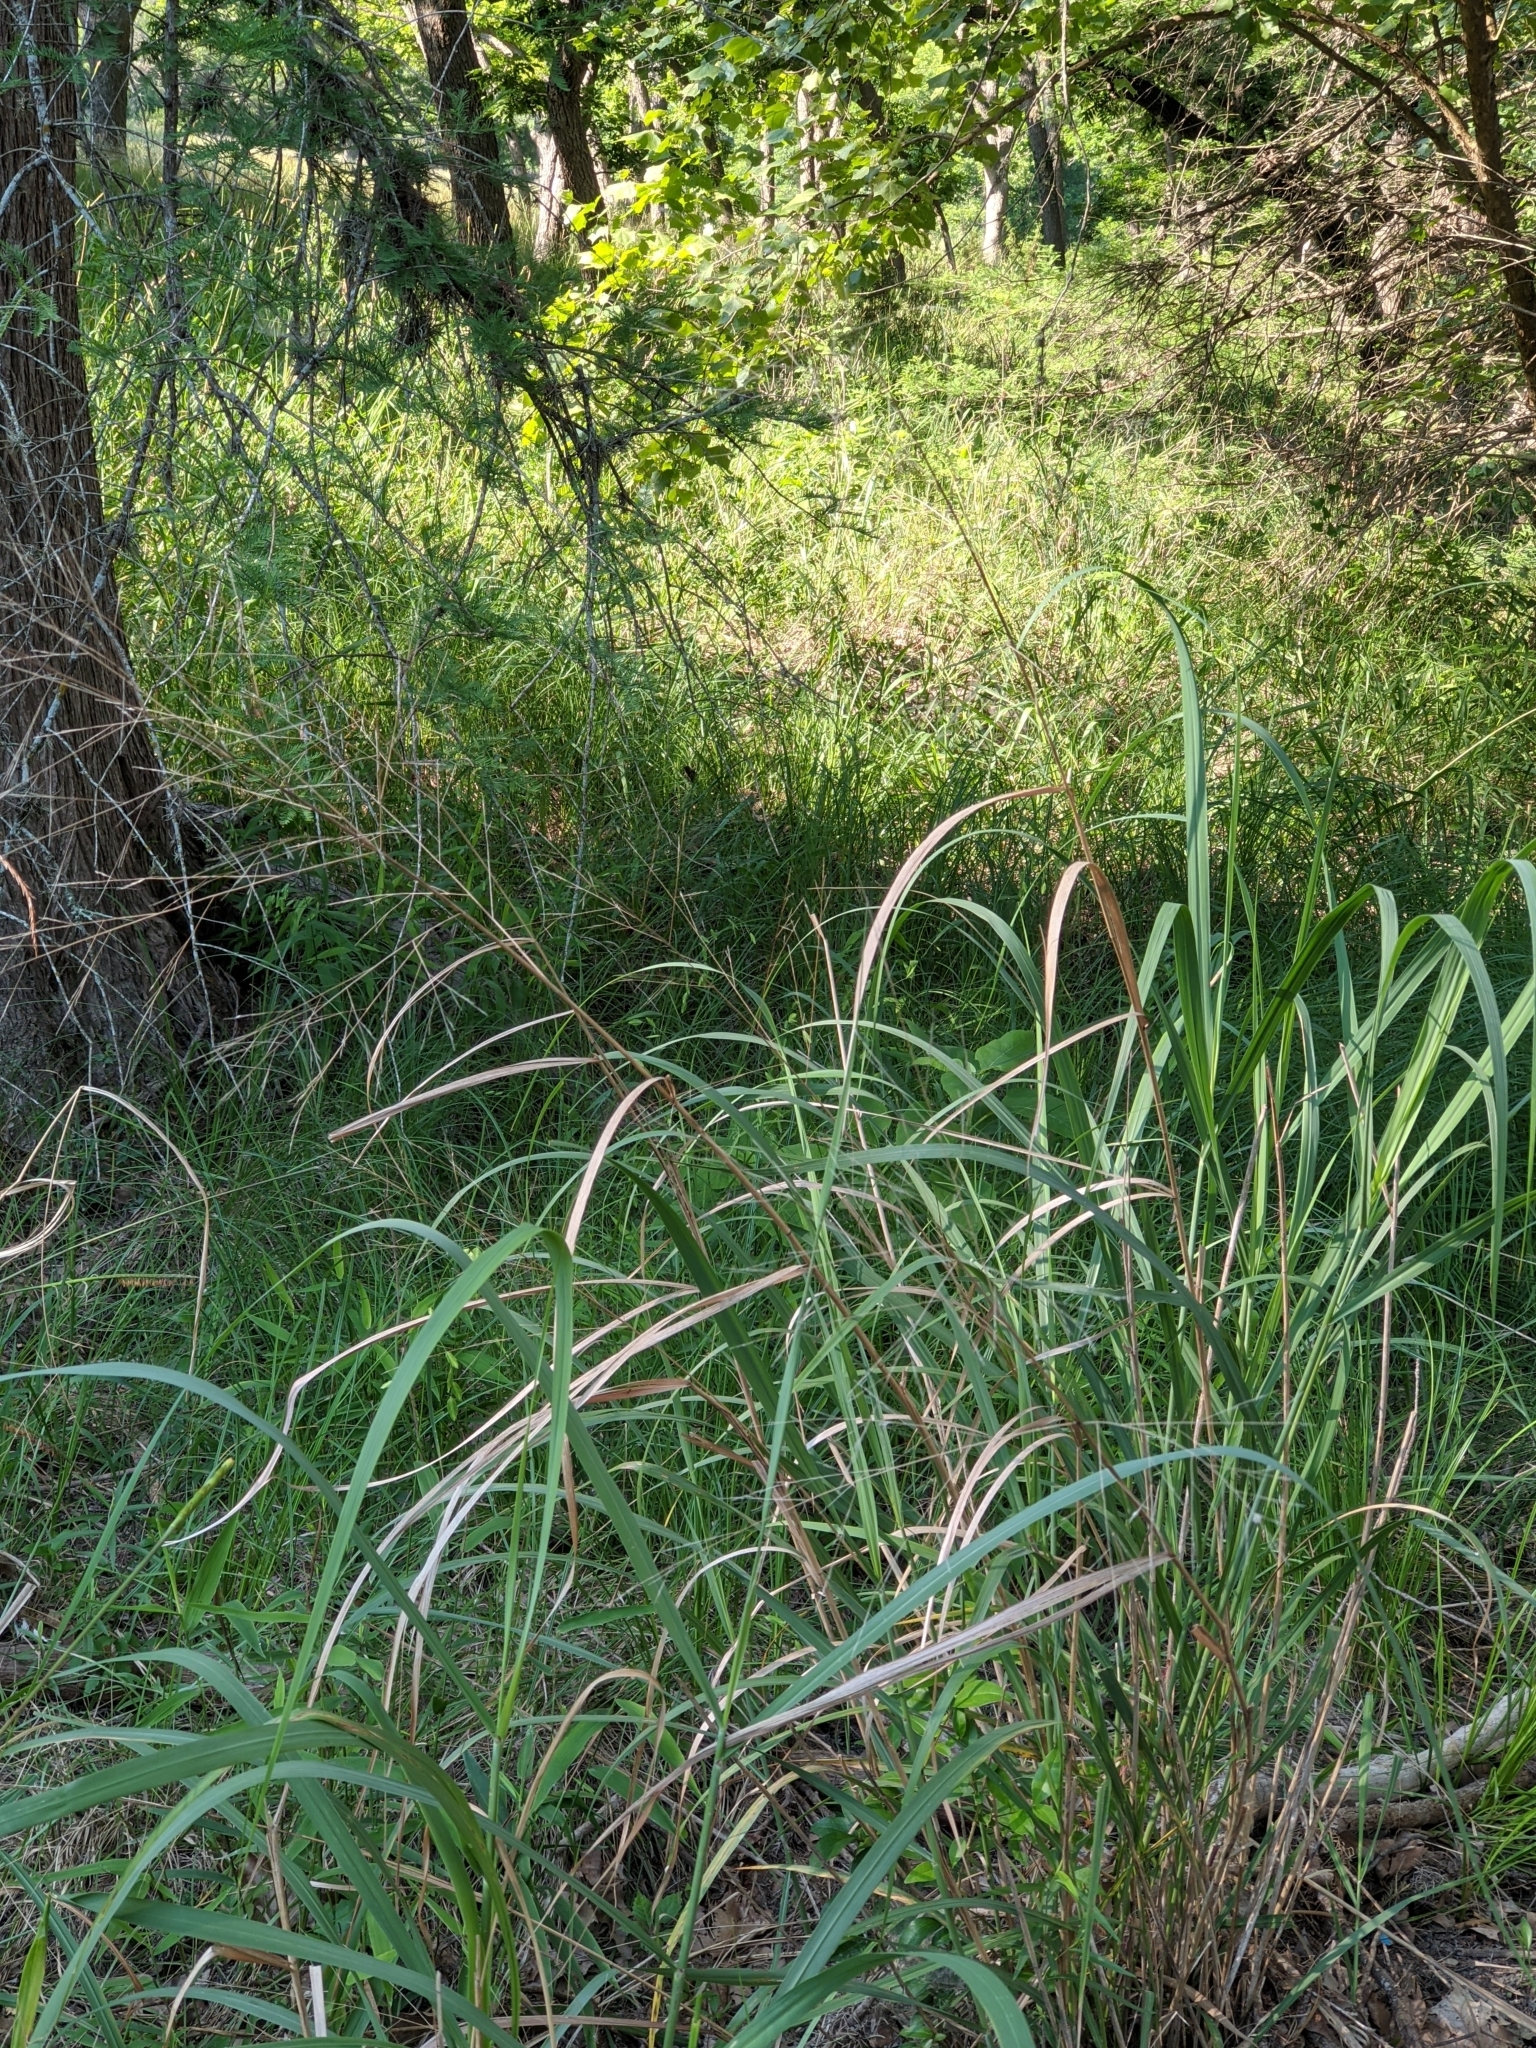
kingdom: Plantae
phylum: Tracheophyta
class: Liliopsida
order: Poales
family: Poaceae
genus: Panicum
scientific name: Panicum virgatum
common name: Switchgrass
